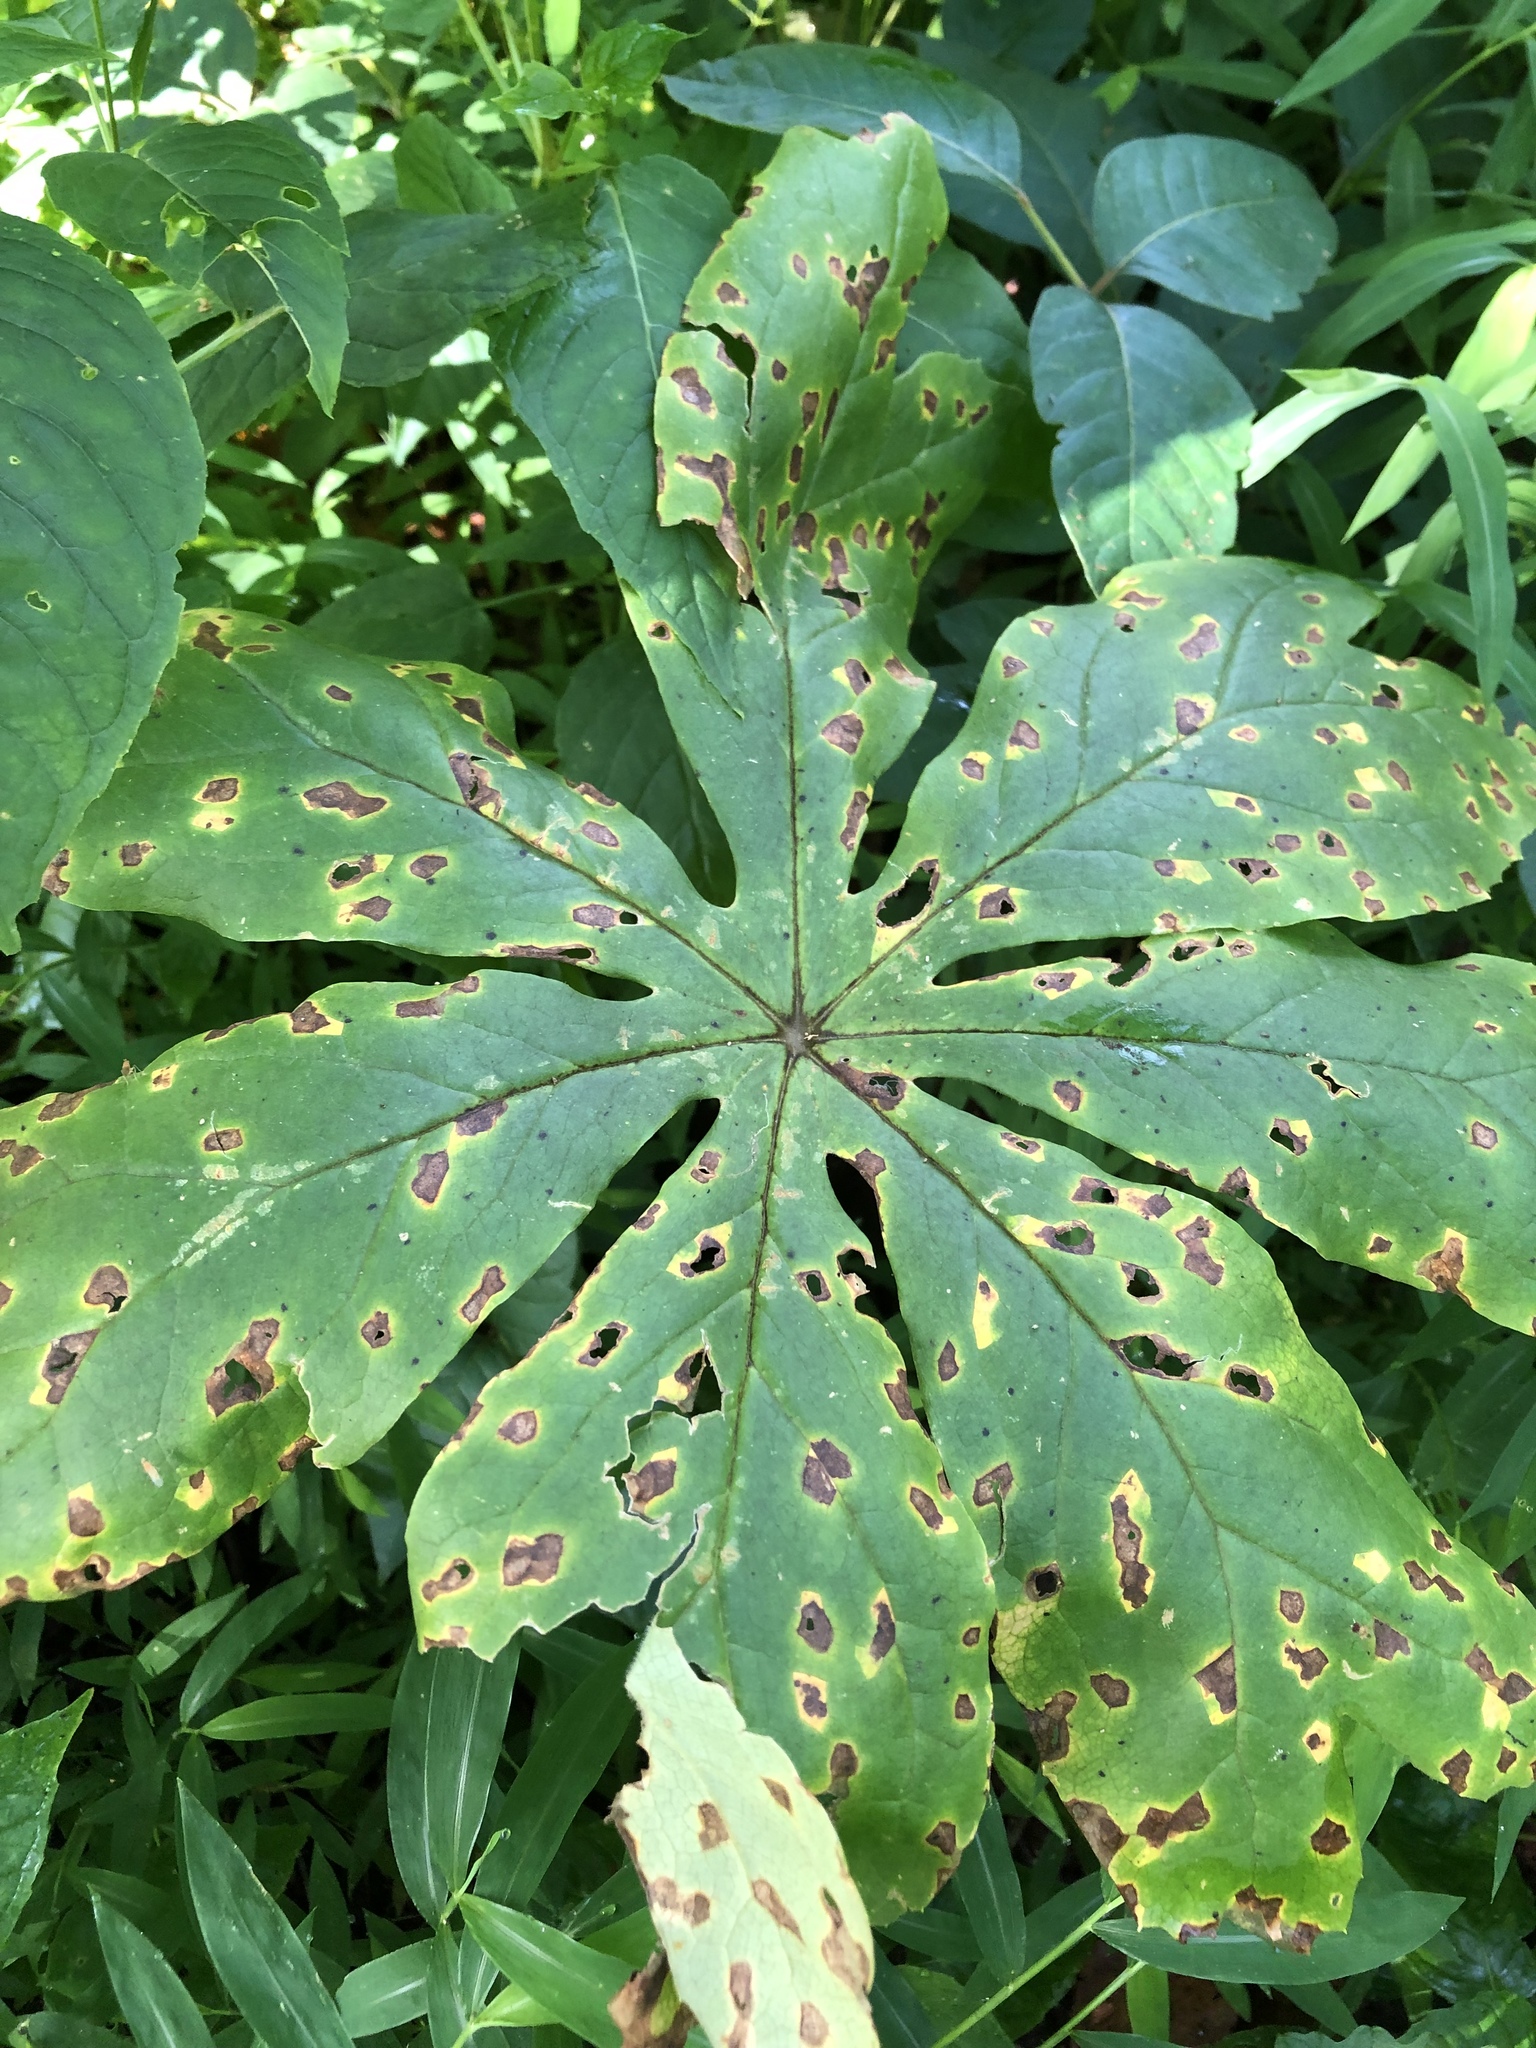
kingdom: Plantae
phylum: Tracheophyta
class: Magnoliopsida
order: Ranunculales
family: Berberidaceae
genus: Podophyllum
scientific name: Podophyllum peltatum
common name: Wild mandrake
